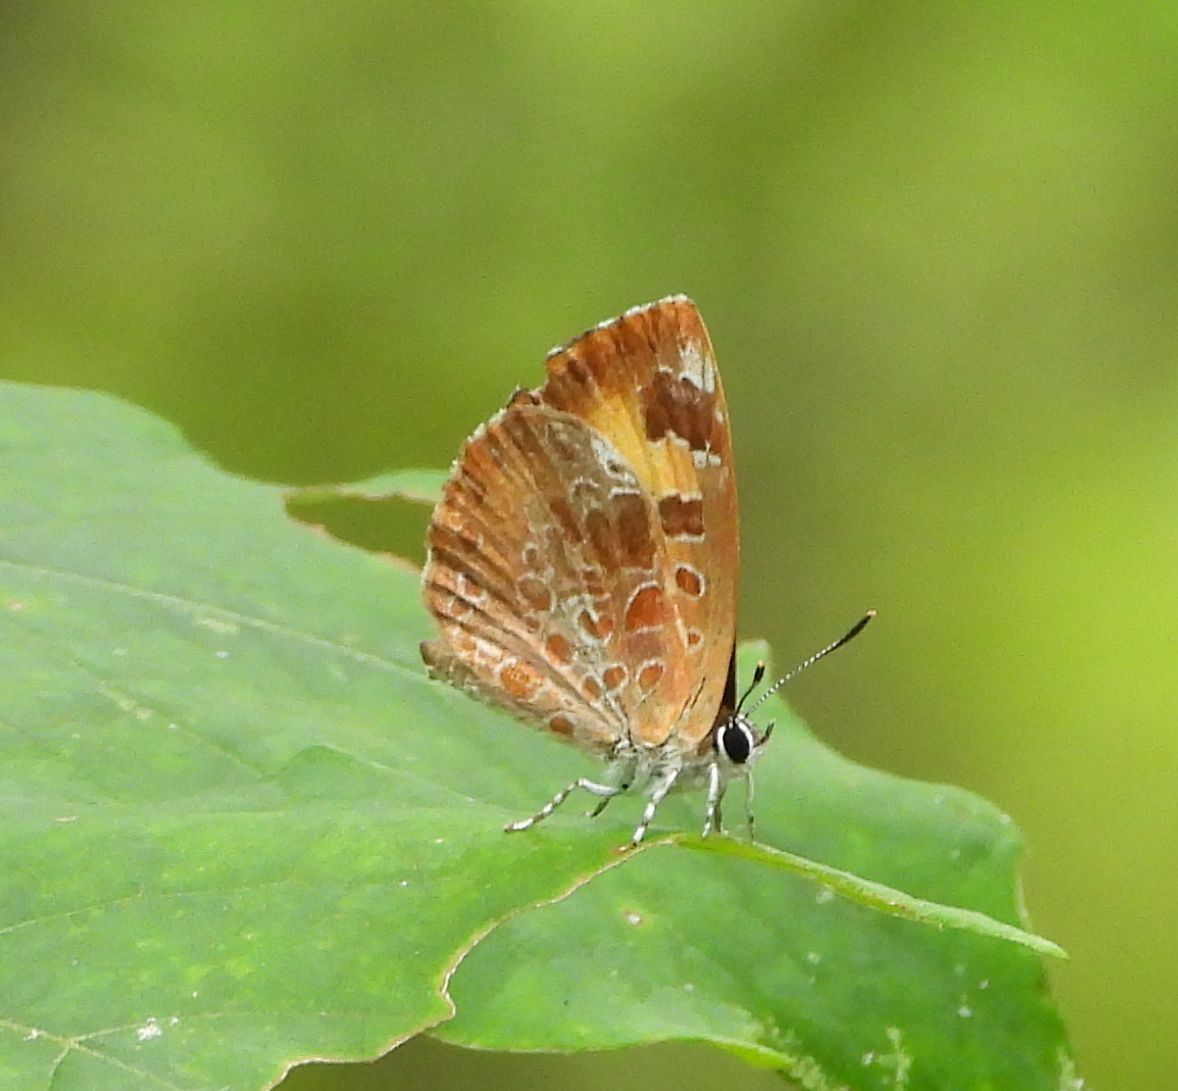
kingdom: Animalia
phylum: Arthropoda
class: Insecta
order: Lepidoptera
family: Lycaenidae
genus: Feniseca
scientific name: Feniseca tarquinius
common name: Harvester
